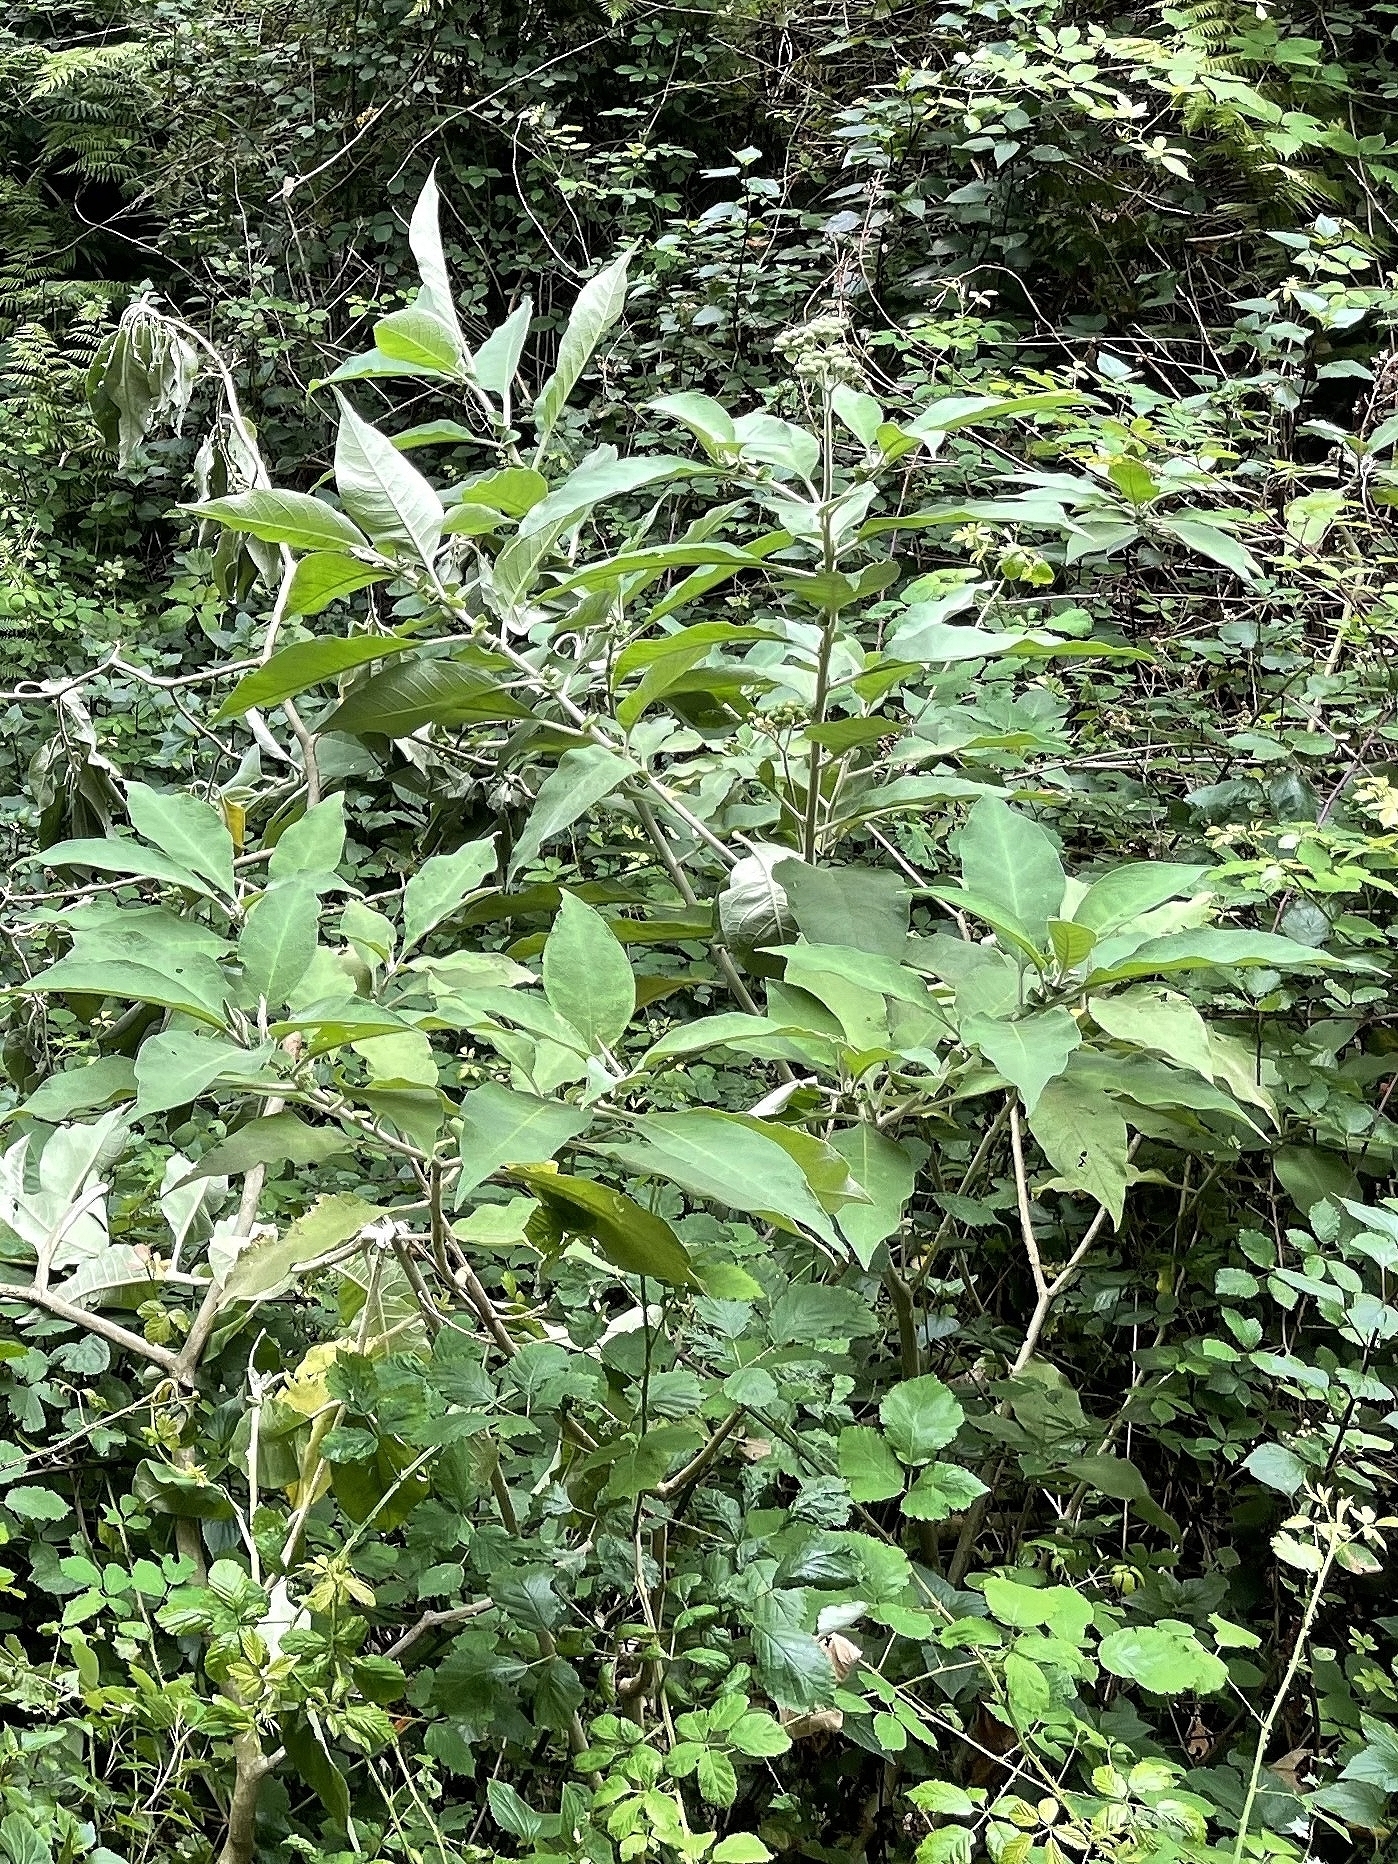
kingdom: Plantae
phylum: Tracheophyta
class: Magnoliopsida
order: Solanales
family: Solanaceae
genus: Solanum
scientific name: Solanum mauritianum
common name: Earleaf nightshade
